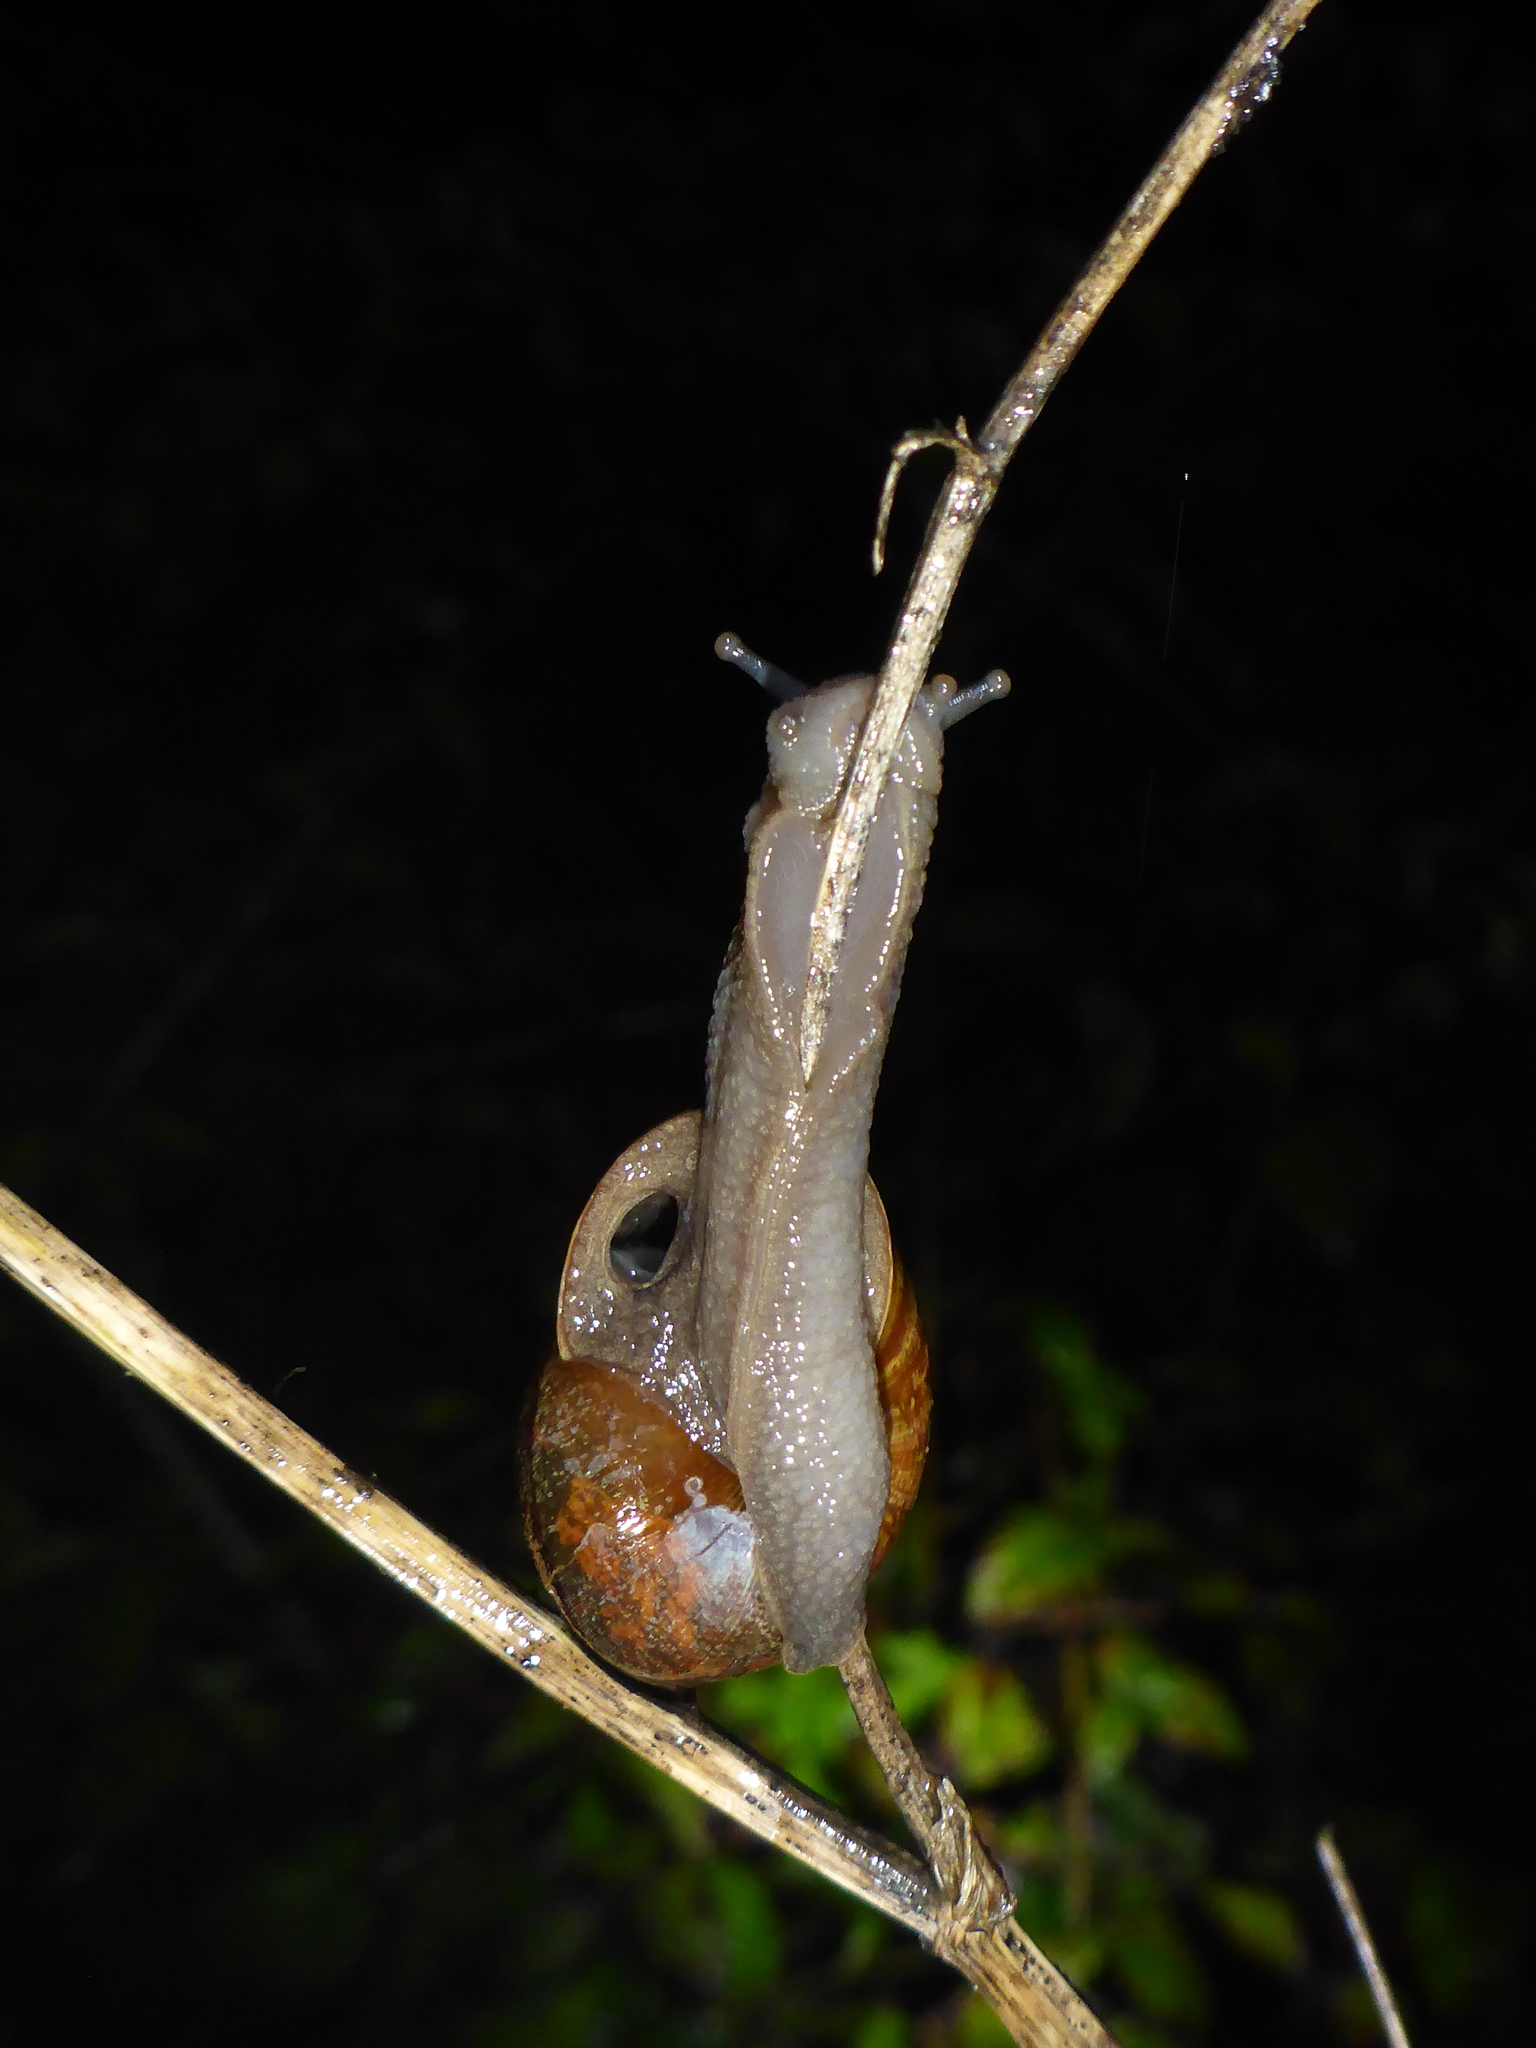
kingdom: Animalia
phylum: Mollusca
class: Gastropoda
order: Stylommatophora
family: Xanthonychidae
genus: Helminthoglypta
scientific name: Helminthoglypta nickliniana
